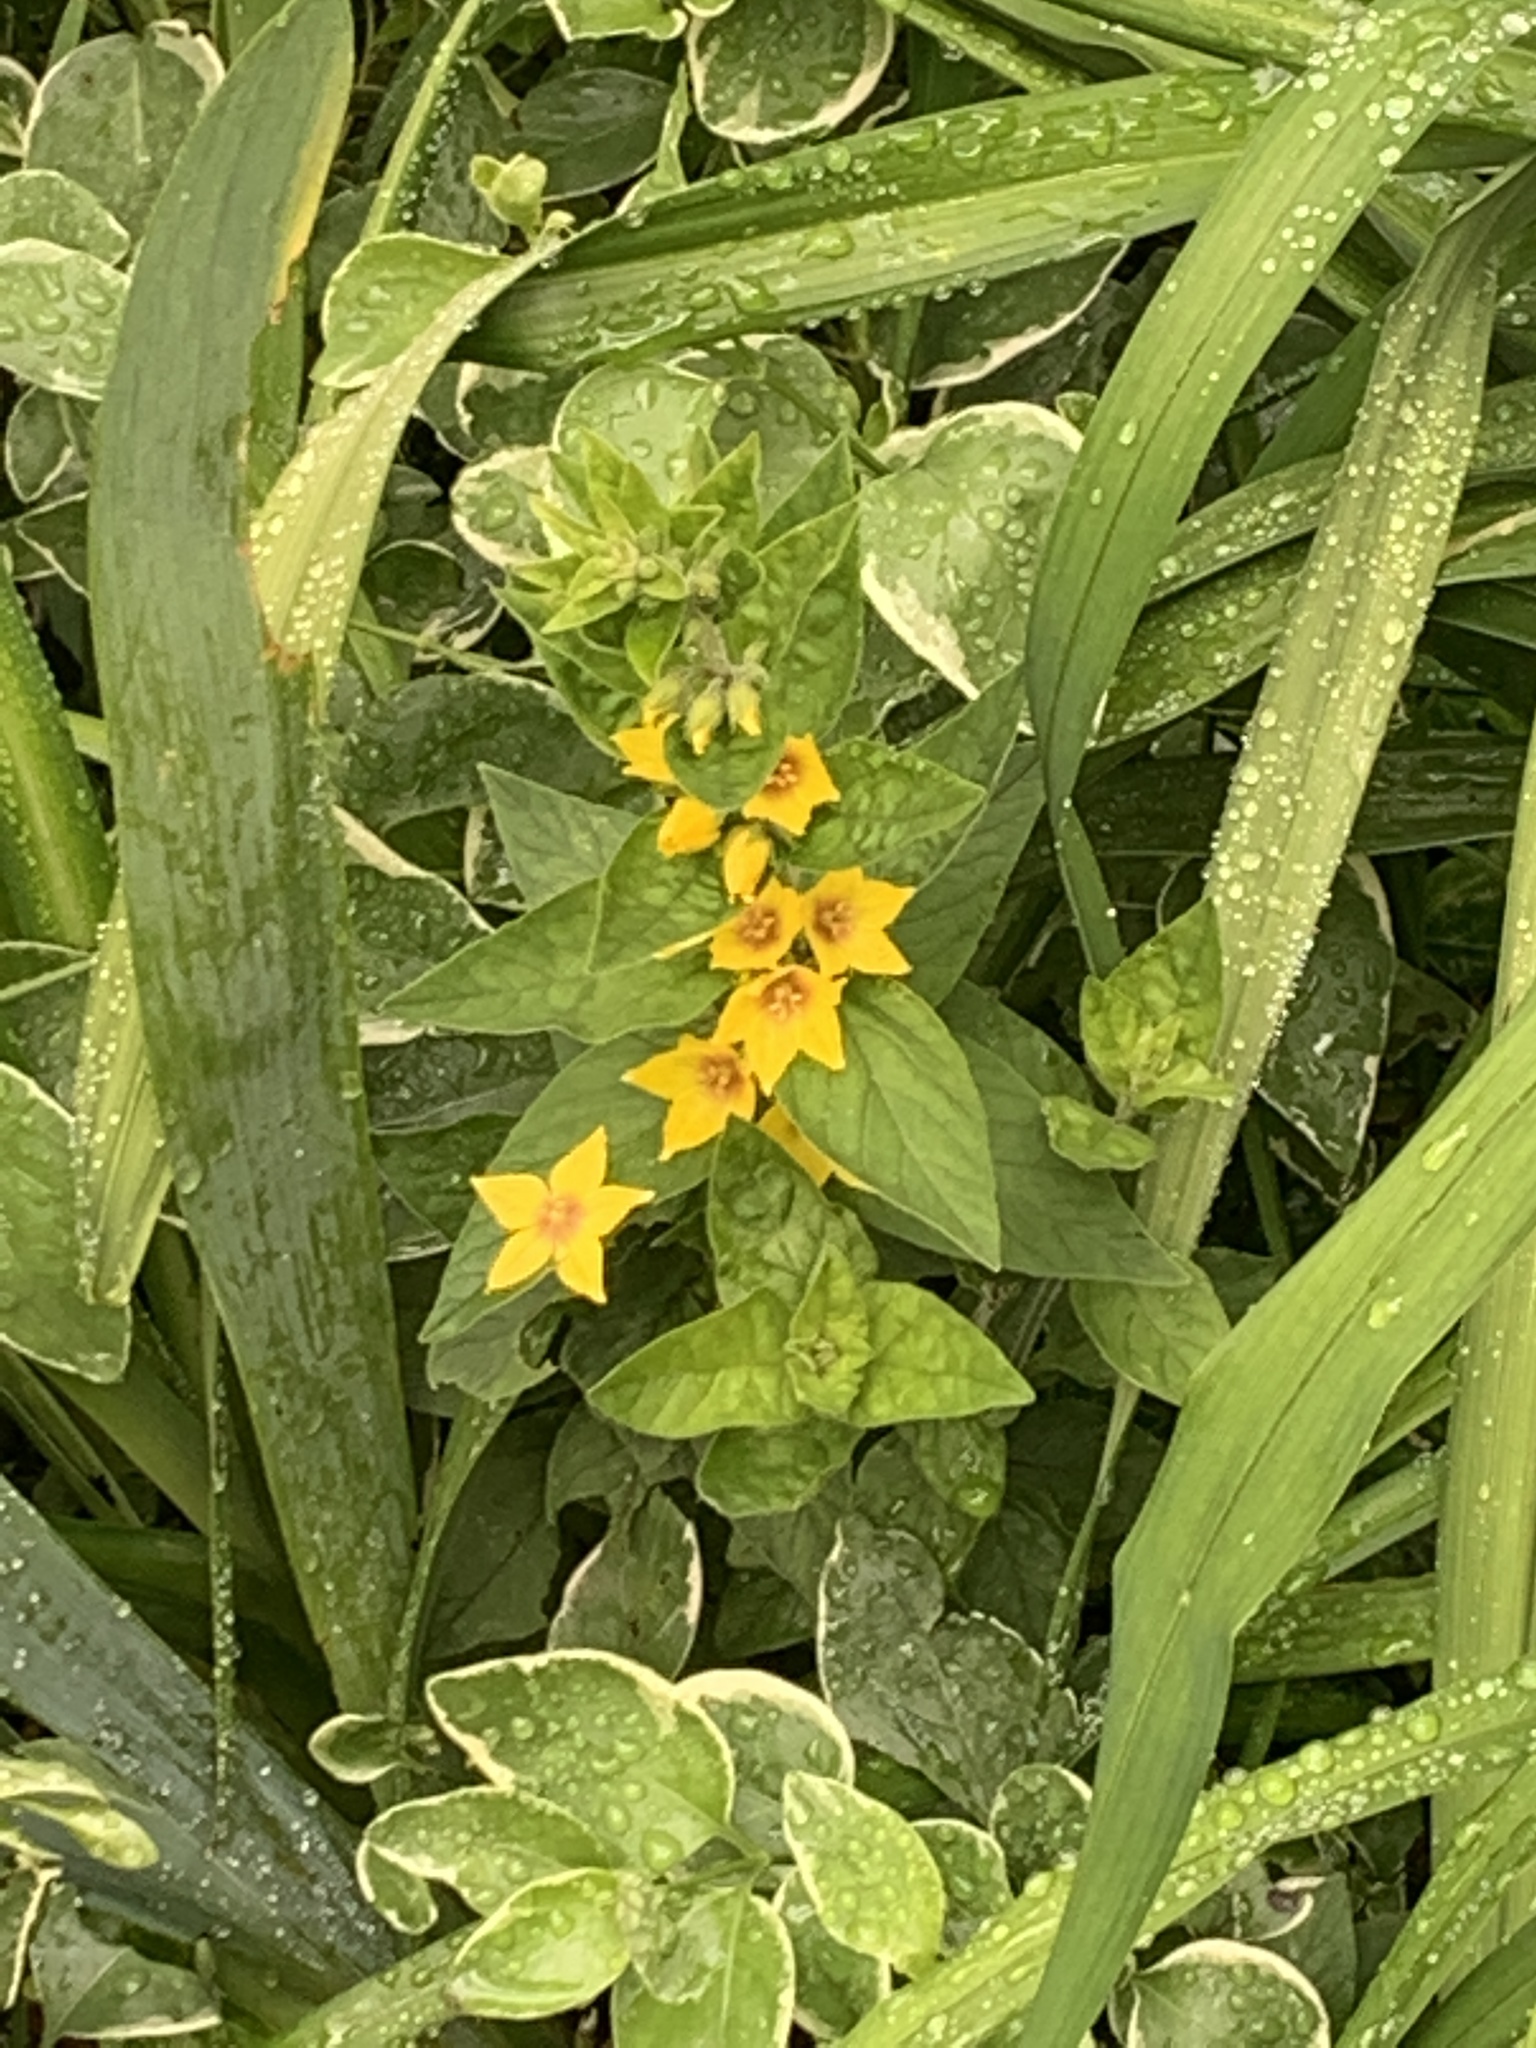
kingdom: Plantae
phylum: Tracheophyta
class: Magnoliopsida
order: Ericales
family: Primulaceae
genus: Lysimachia
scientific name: Lysimachia punctata
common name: Dotted loosestrife
